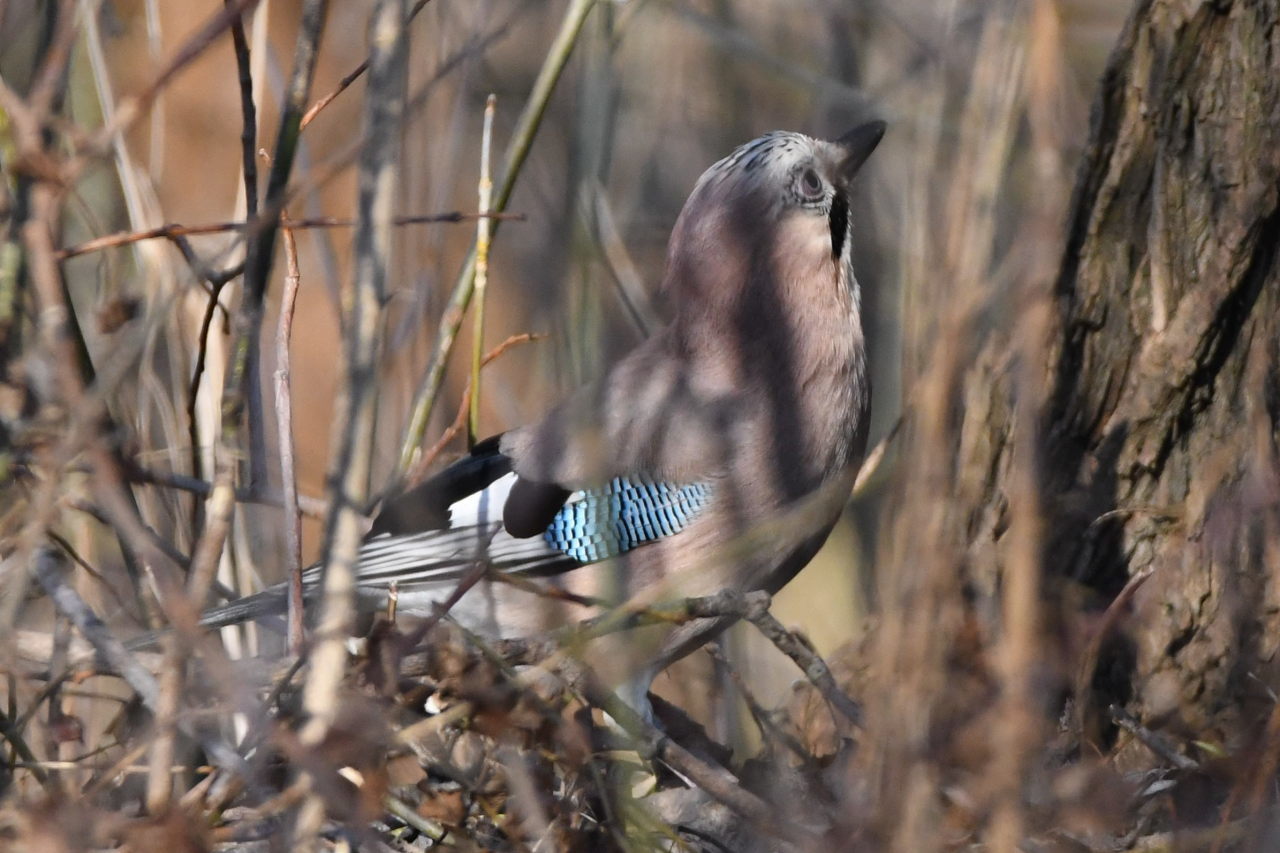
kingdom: Animalia
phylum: Chordata
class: Aves
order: Passeriformes
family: Corvidae
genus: Garrulus
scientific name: Garrulus glandarius
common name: Eurasian jay
